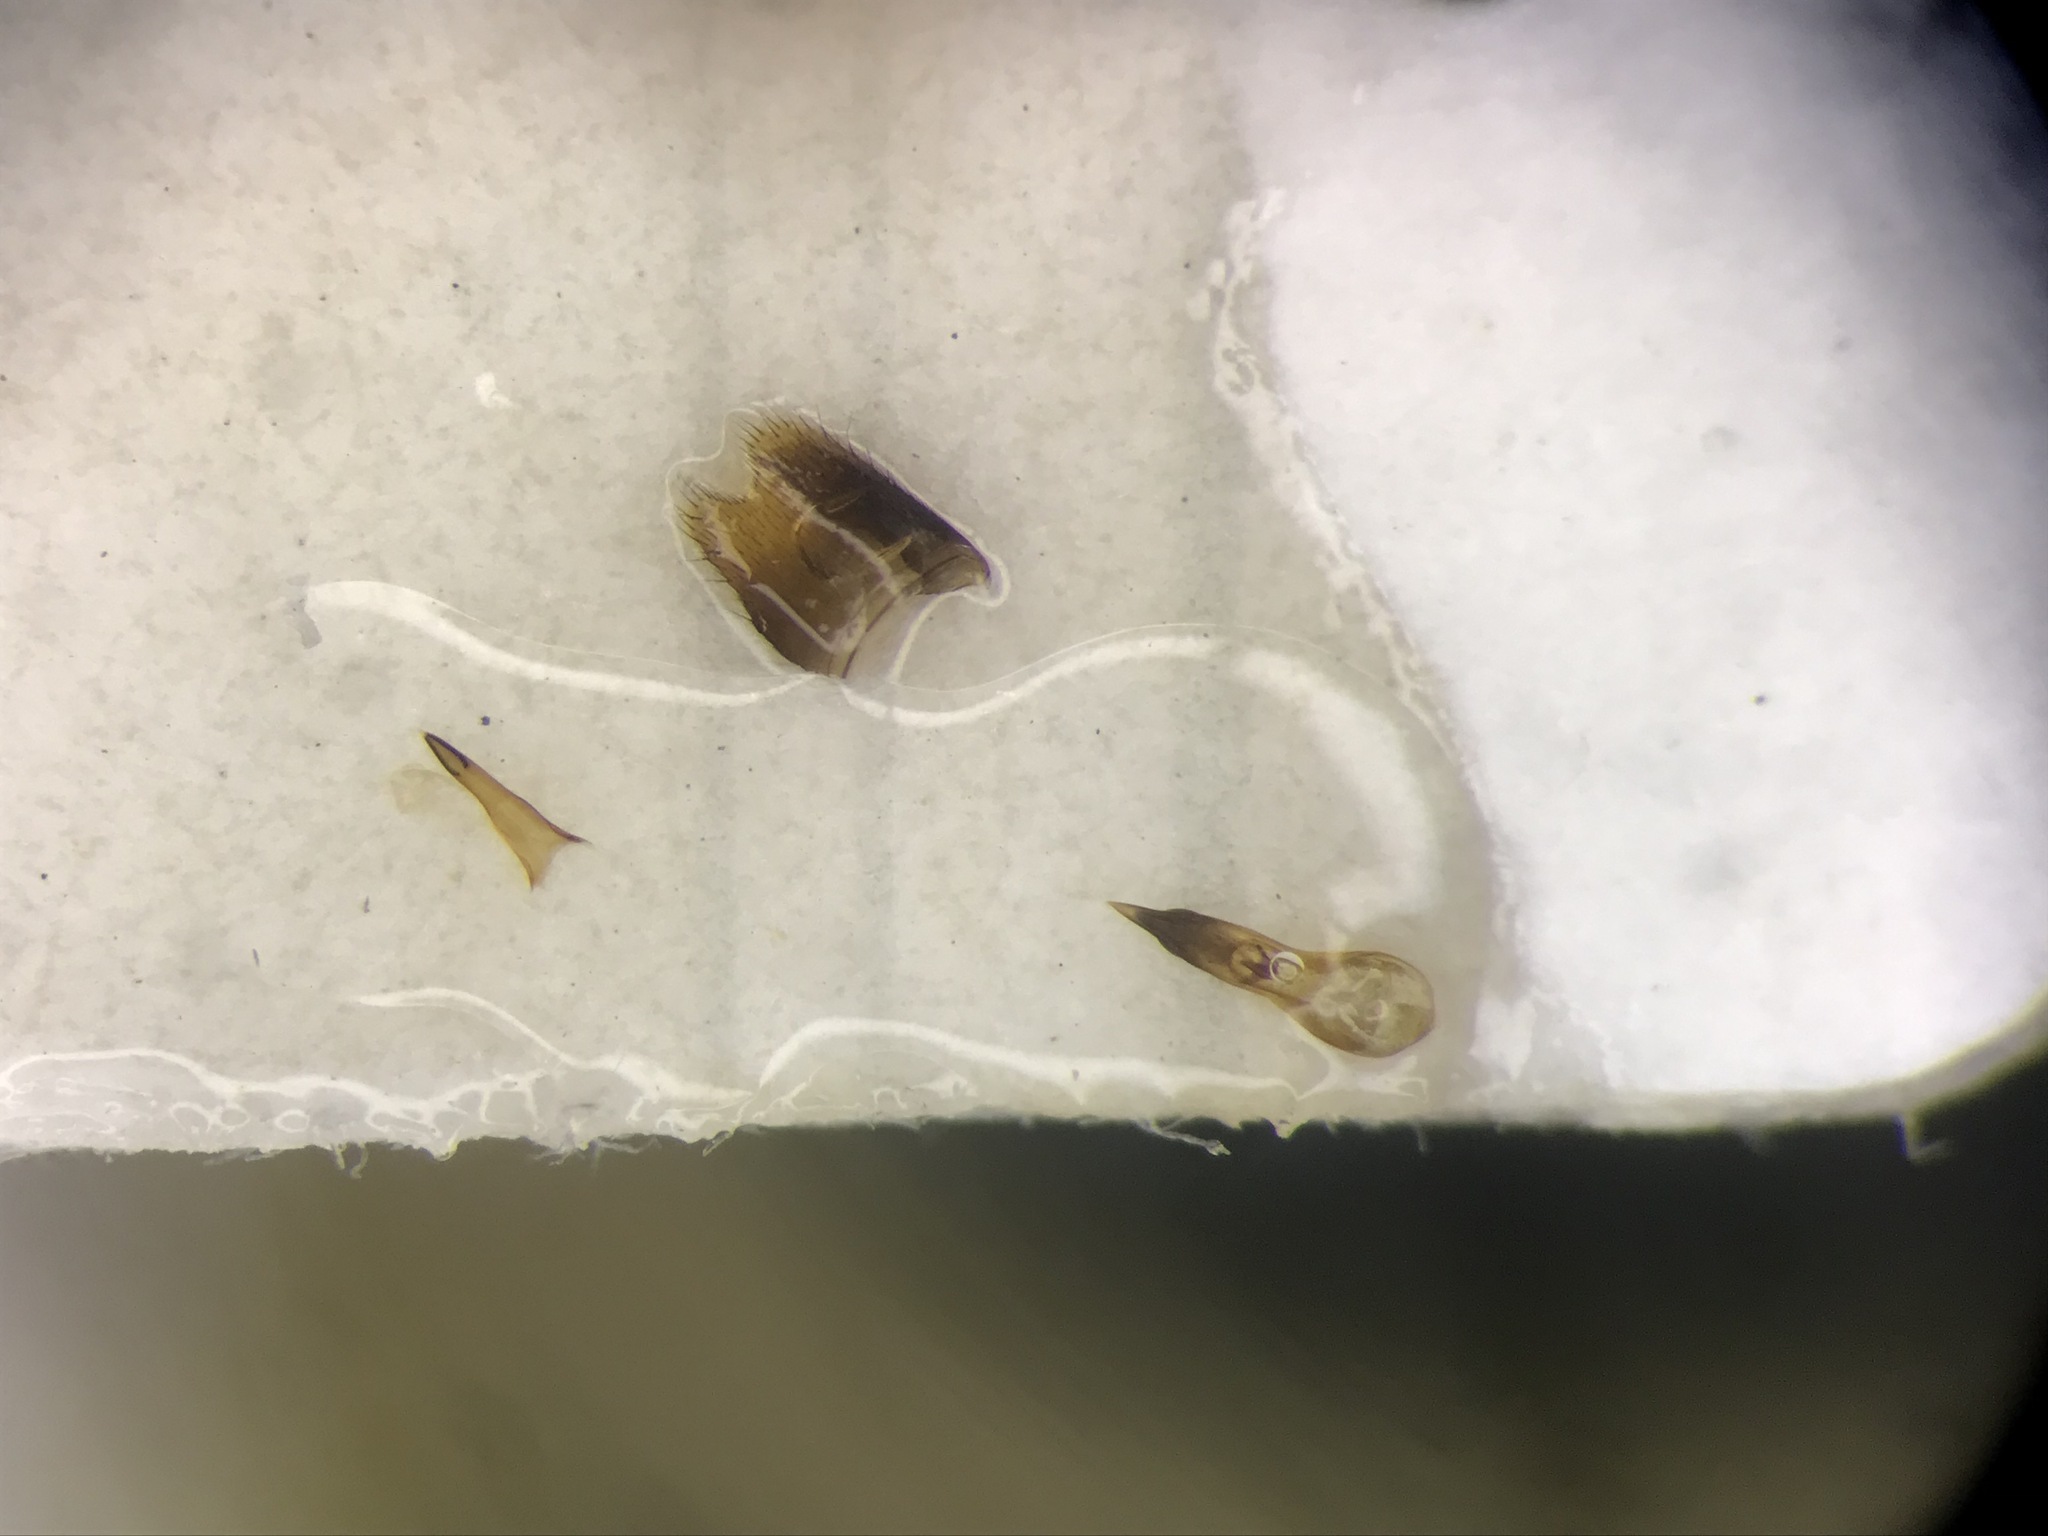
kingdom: Animalia
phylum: Arthropoda
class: Insecta
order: Coleoptera
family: Staphylinidae
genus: Philonthus
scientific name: Philonthus sericans
